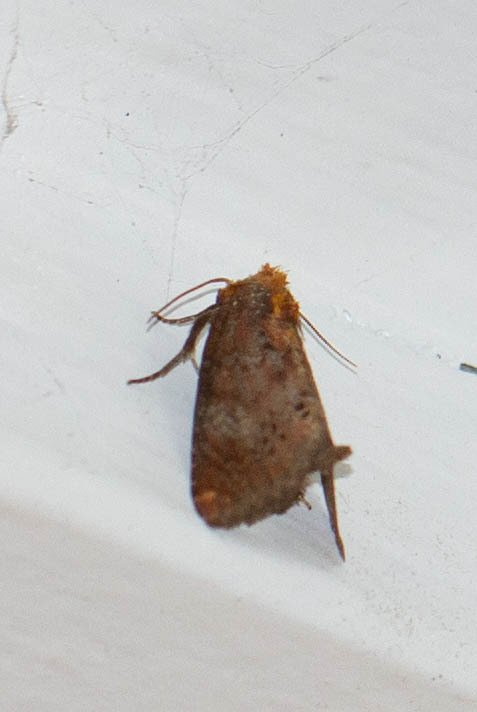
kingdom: Animalia
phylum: Arthropoda
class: Insecta
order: Lepidoptera
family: Noctuidae
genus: Achatodes
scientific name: Achatodes zeae
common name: Elder shoot borer
